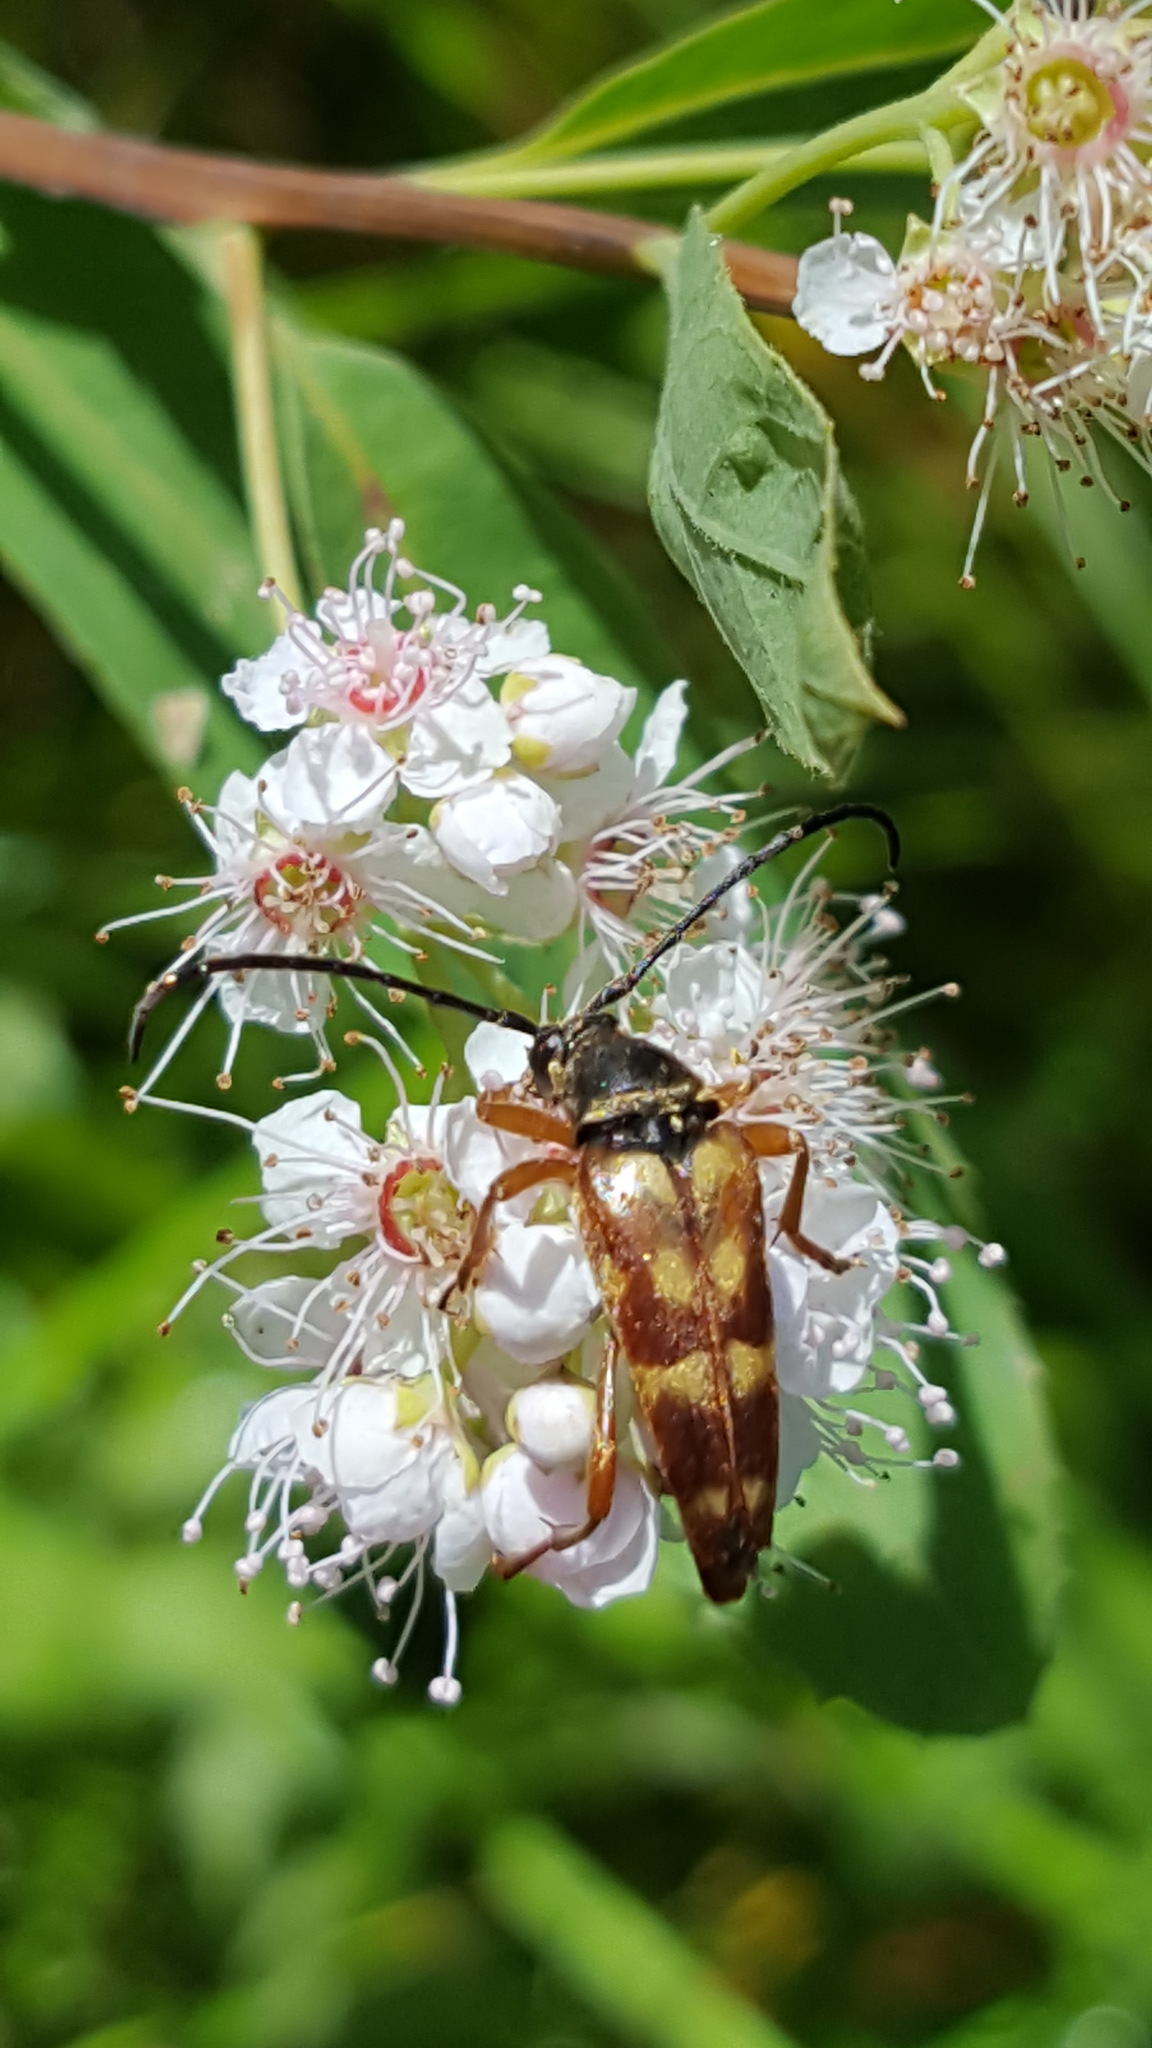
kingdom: Animalia
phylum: Arthropoda
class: Insecta
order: Coleoptera
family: Cerambycidae
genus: Typocerus
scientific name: Typocerus velutinus
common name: Banded longhorn beetle
